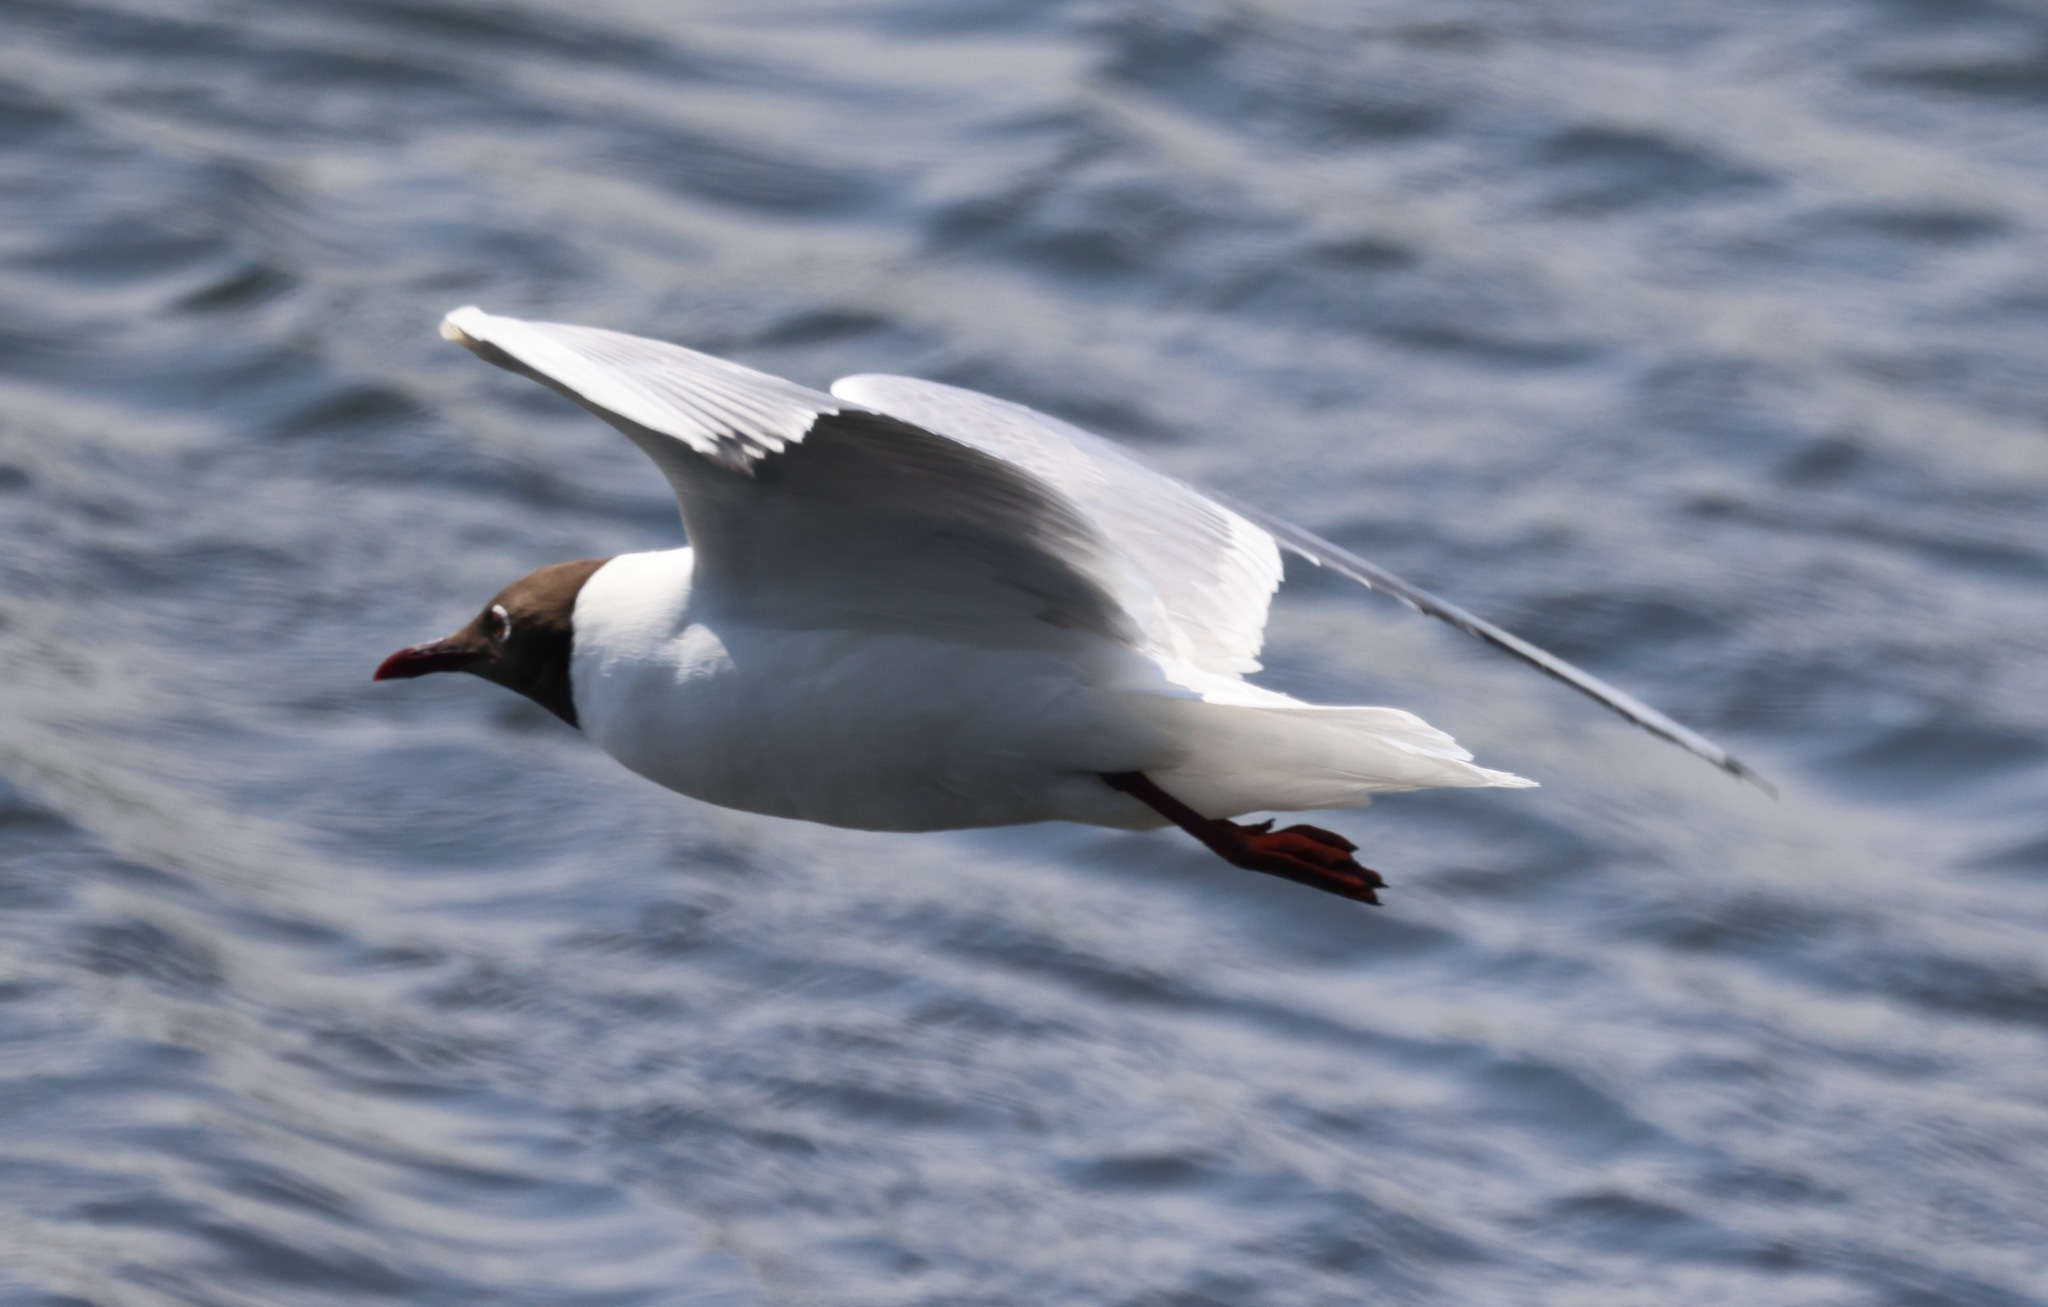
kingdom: Animalia
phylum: Chordata
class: Aves
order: Charadriiformes
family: Laridae
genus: Chroicocephalus
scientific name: Chroicocephalus ridibundus
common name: Black-headed gull
